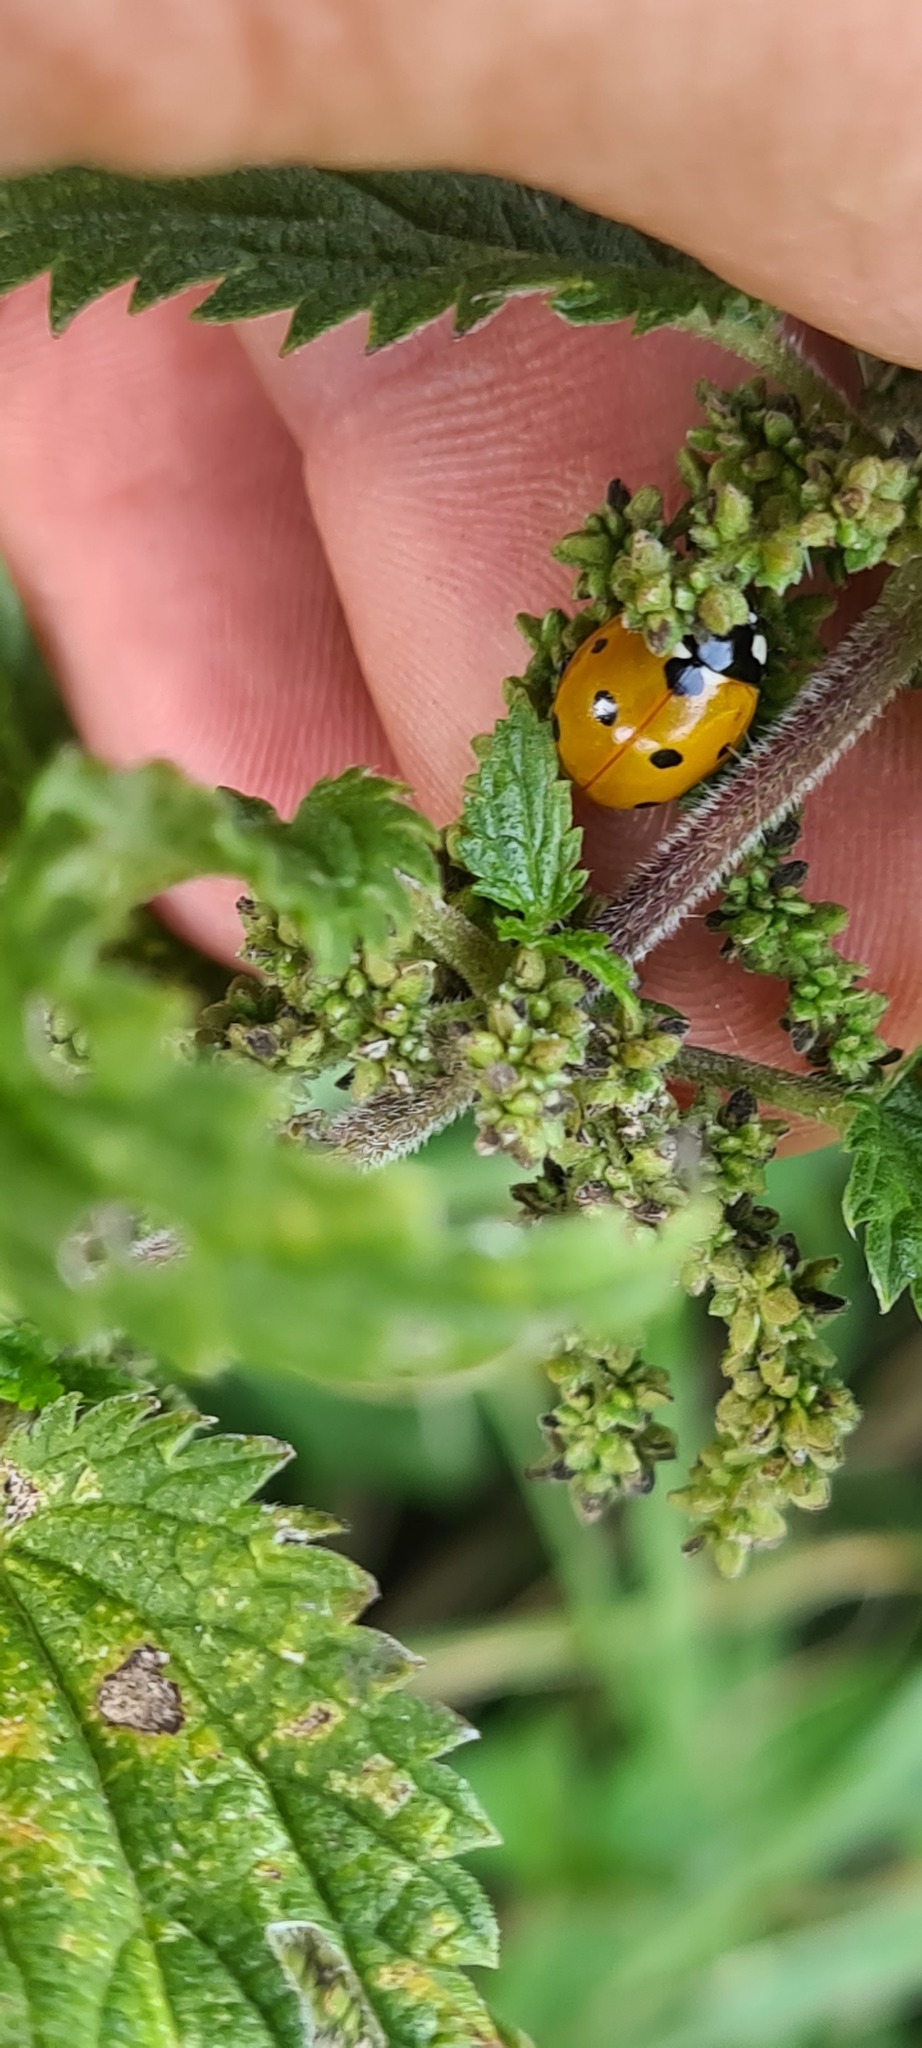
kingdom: Animalia
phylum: Arthropoda
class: Insecta
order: Coleoptera
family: Coccinellidae
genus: Coccinella
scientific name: Coccinella septempunctata
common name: Sevenspotted lady beetle
